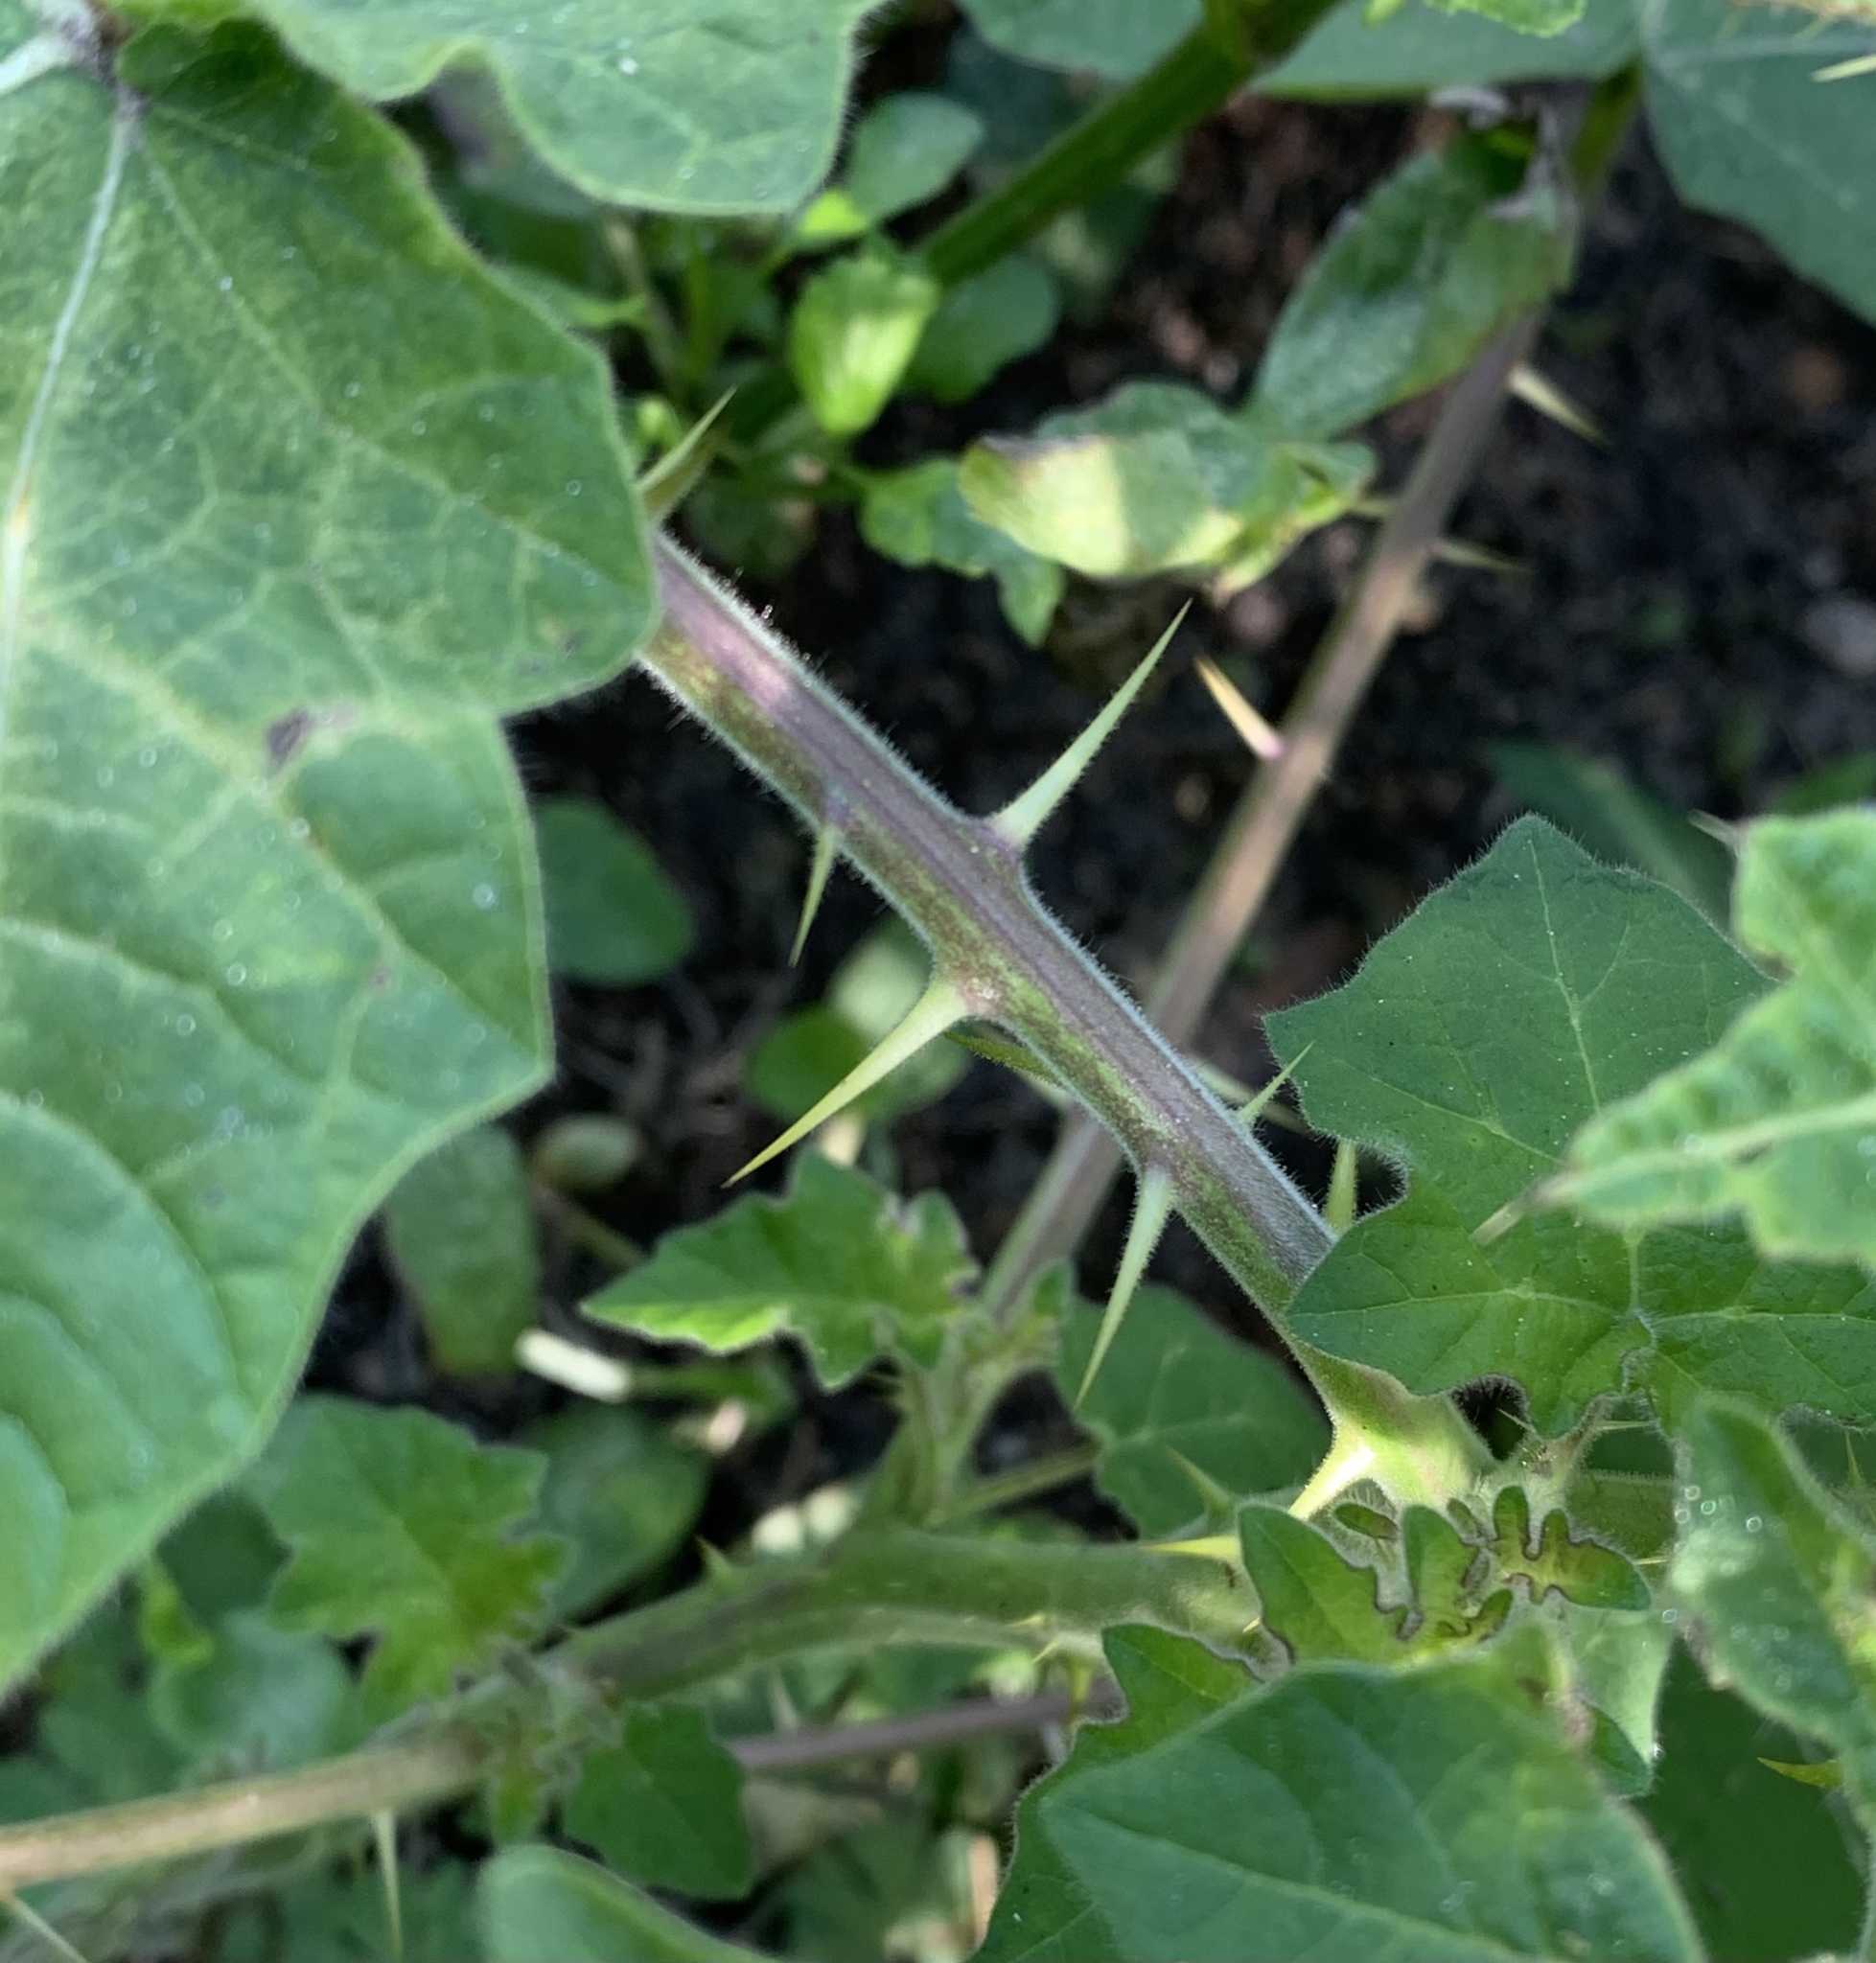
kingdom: Plantae
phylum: Tracheophyta
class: Magnoliopsida
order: Solanales
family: Solanaceae
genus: Solanum
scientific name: Solanum viarum
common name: Tropical soda apple
